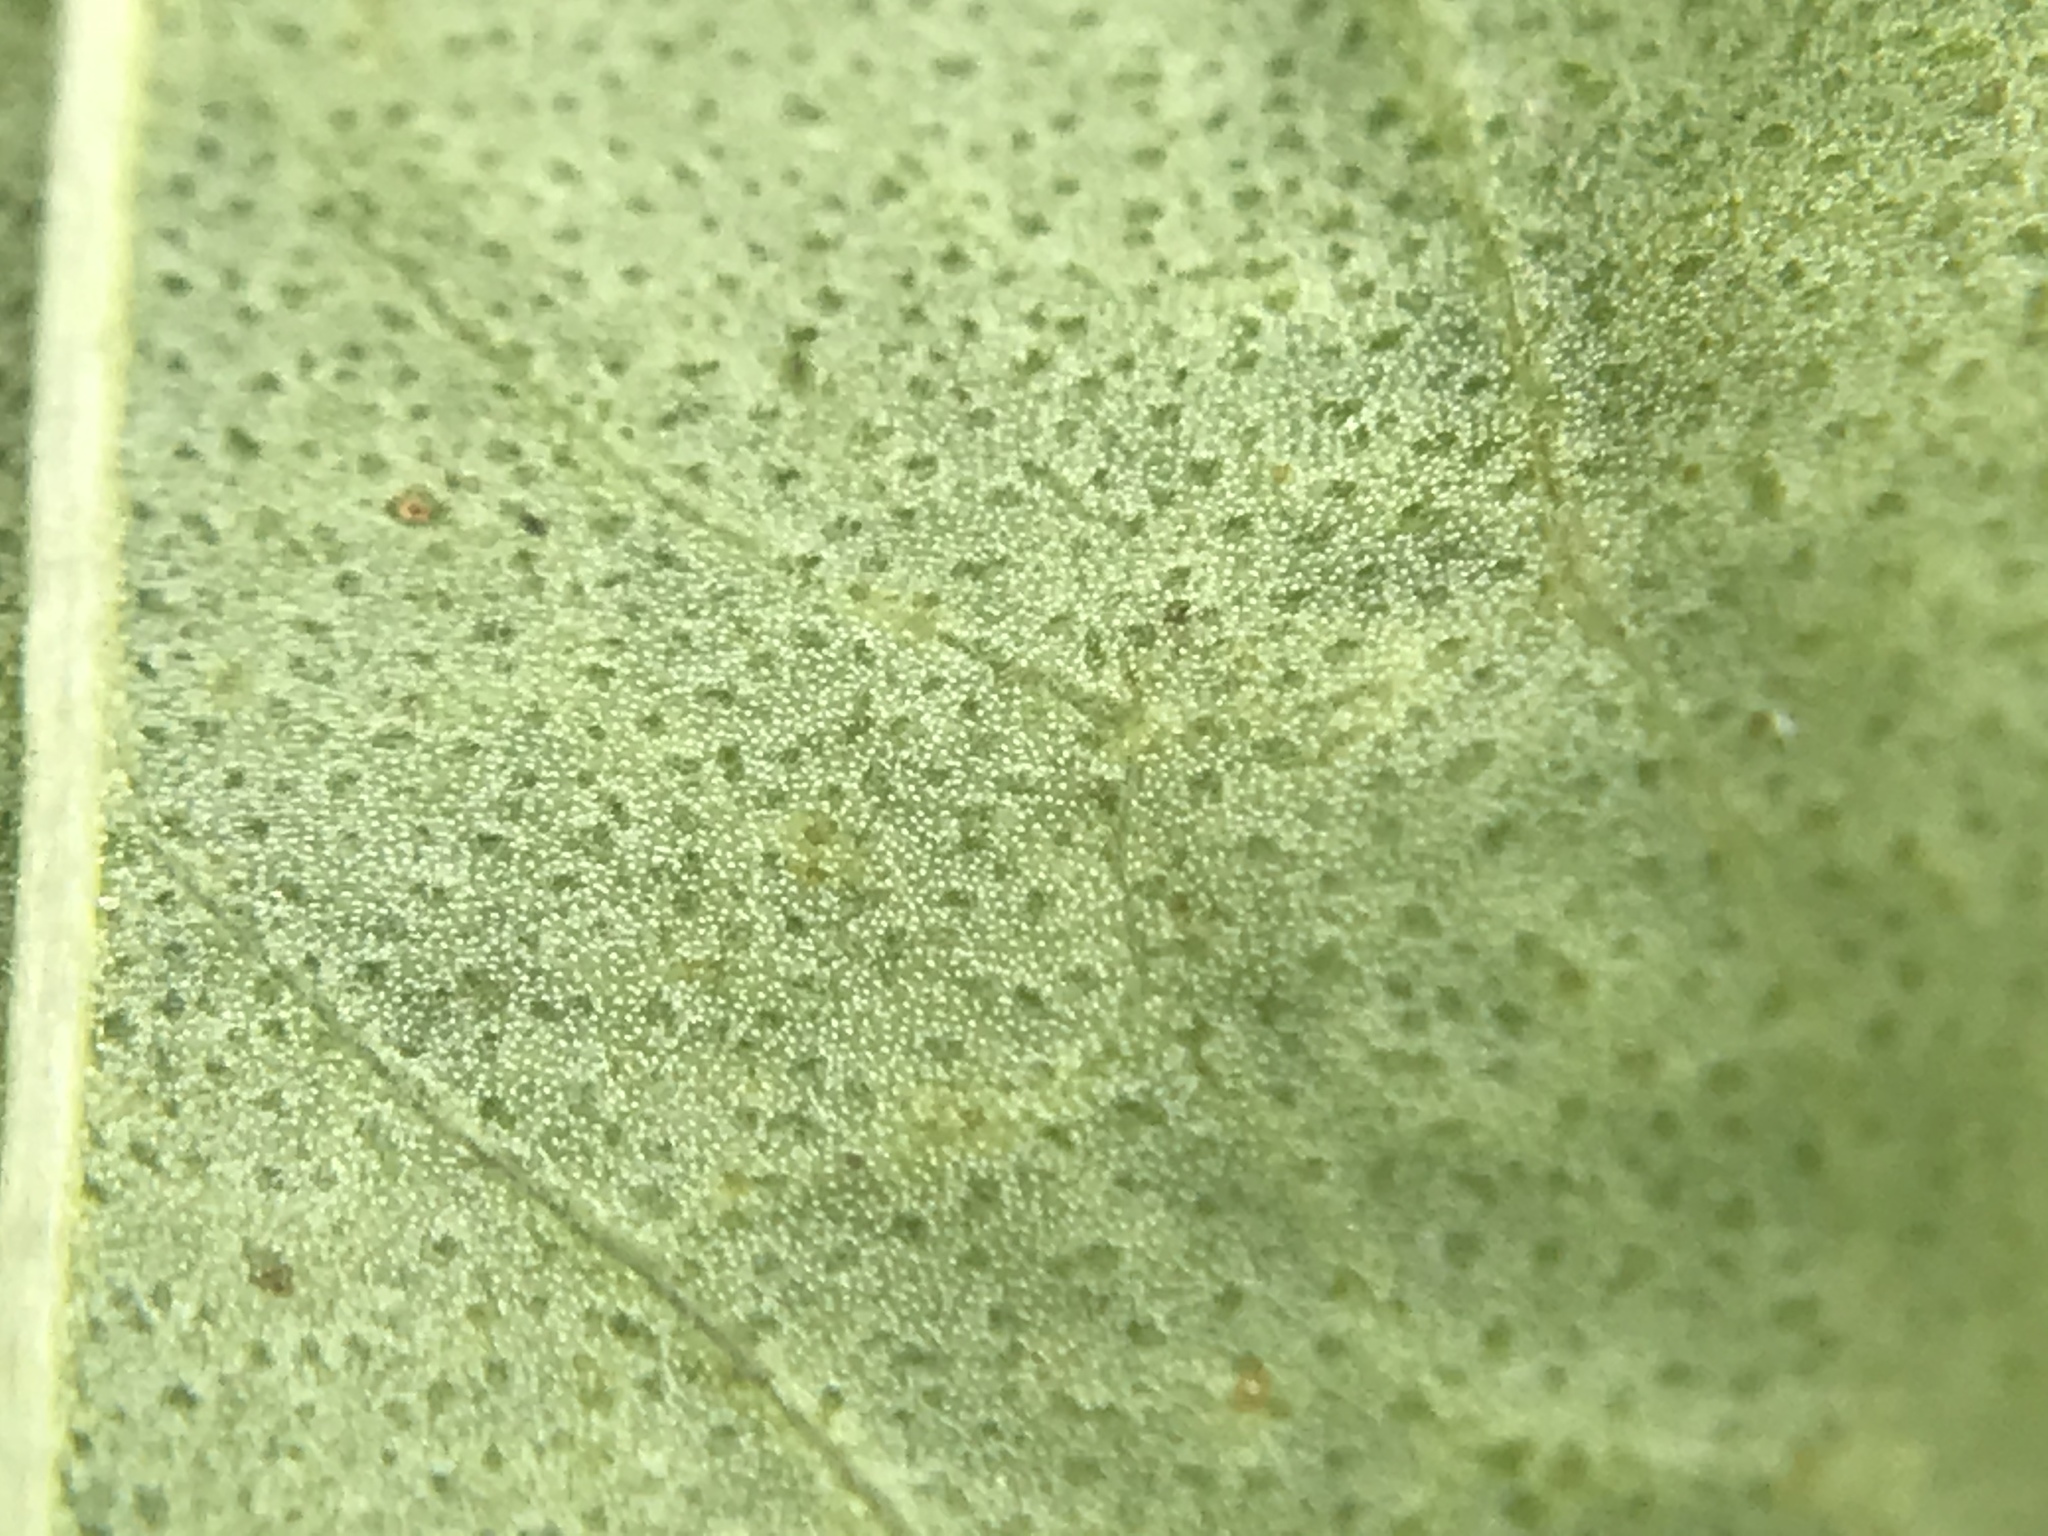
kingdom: Plantae
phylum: Tracheophyta
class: Magnoliopsida
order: Asterales
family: Asteraceae
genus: Baccharis
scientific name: Baccharis halimifolia
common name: Eastern baccharis
